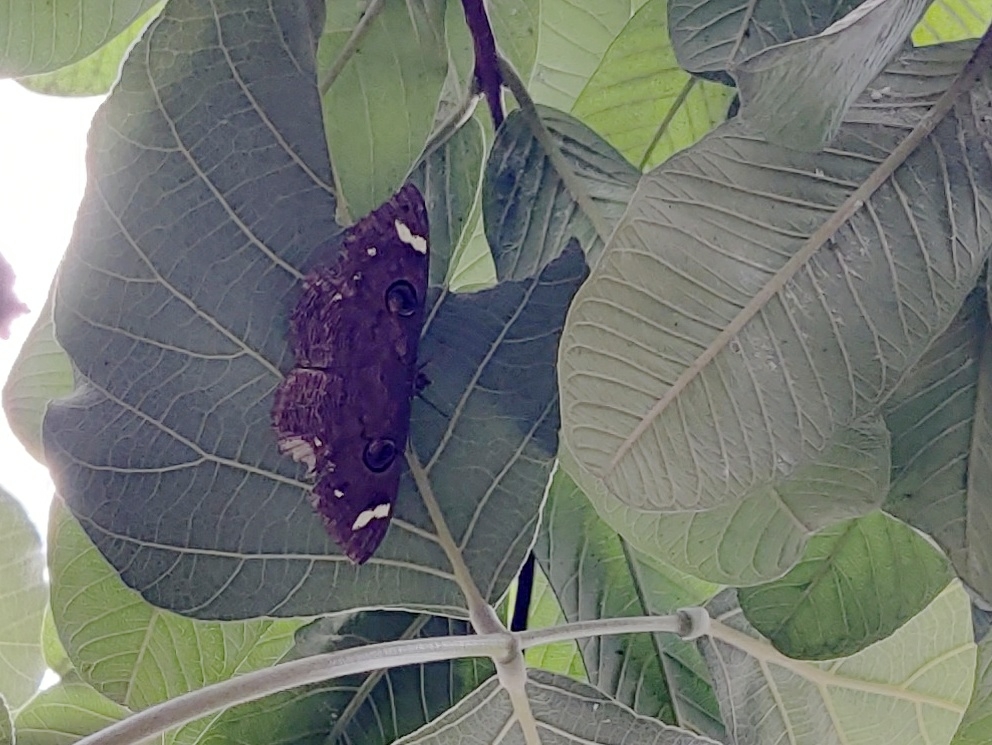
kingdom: Animalia
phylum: Arthropoda
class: Insecta
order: Lepidoptera
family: Erebidae
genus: Erebus
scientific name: Erebus hieroglyphica
